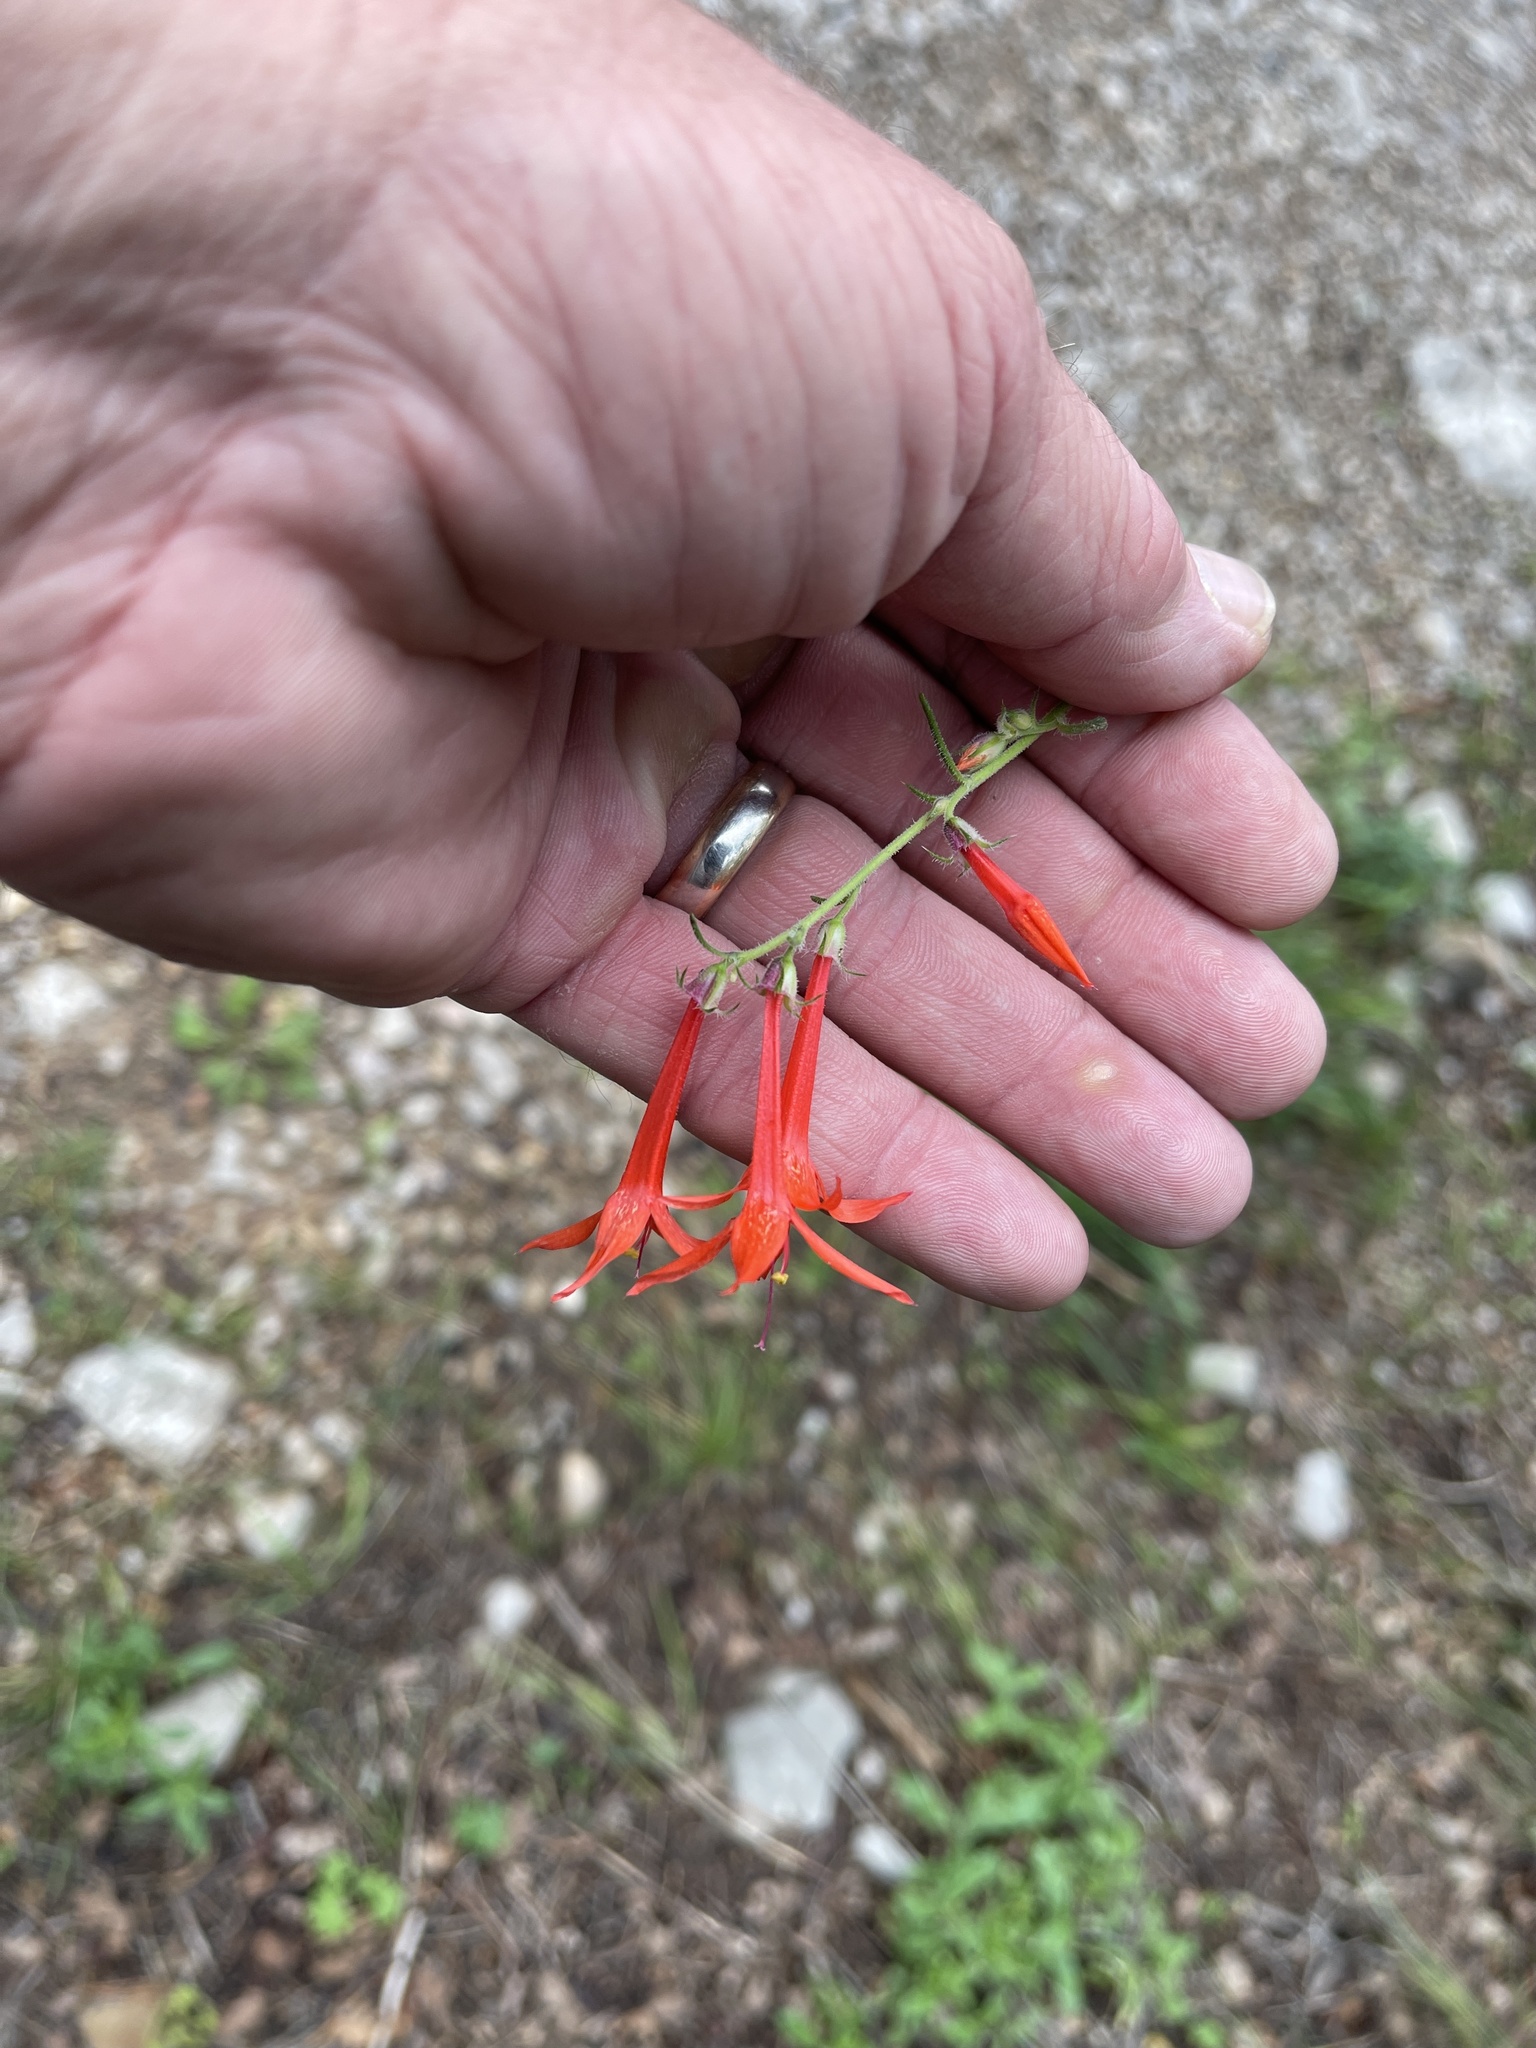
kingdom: Plantae
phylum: Tracheophyta
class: Magnoliopsida
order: Ericales
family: Polemoniaceae
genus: Ipomopsis
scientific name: Ipomopsis aggregata
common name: Scarlet gilia
